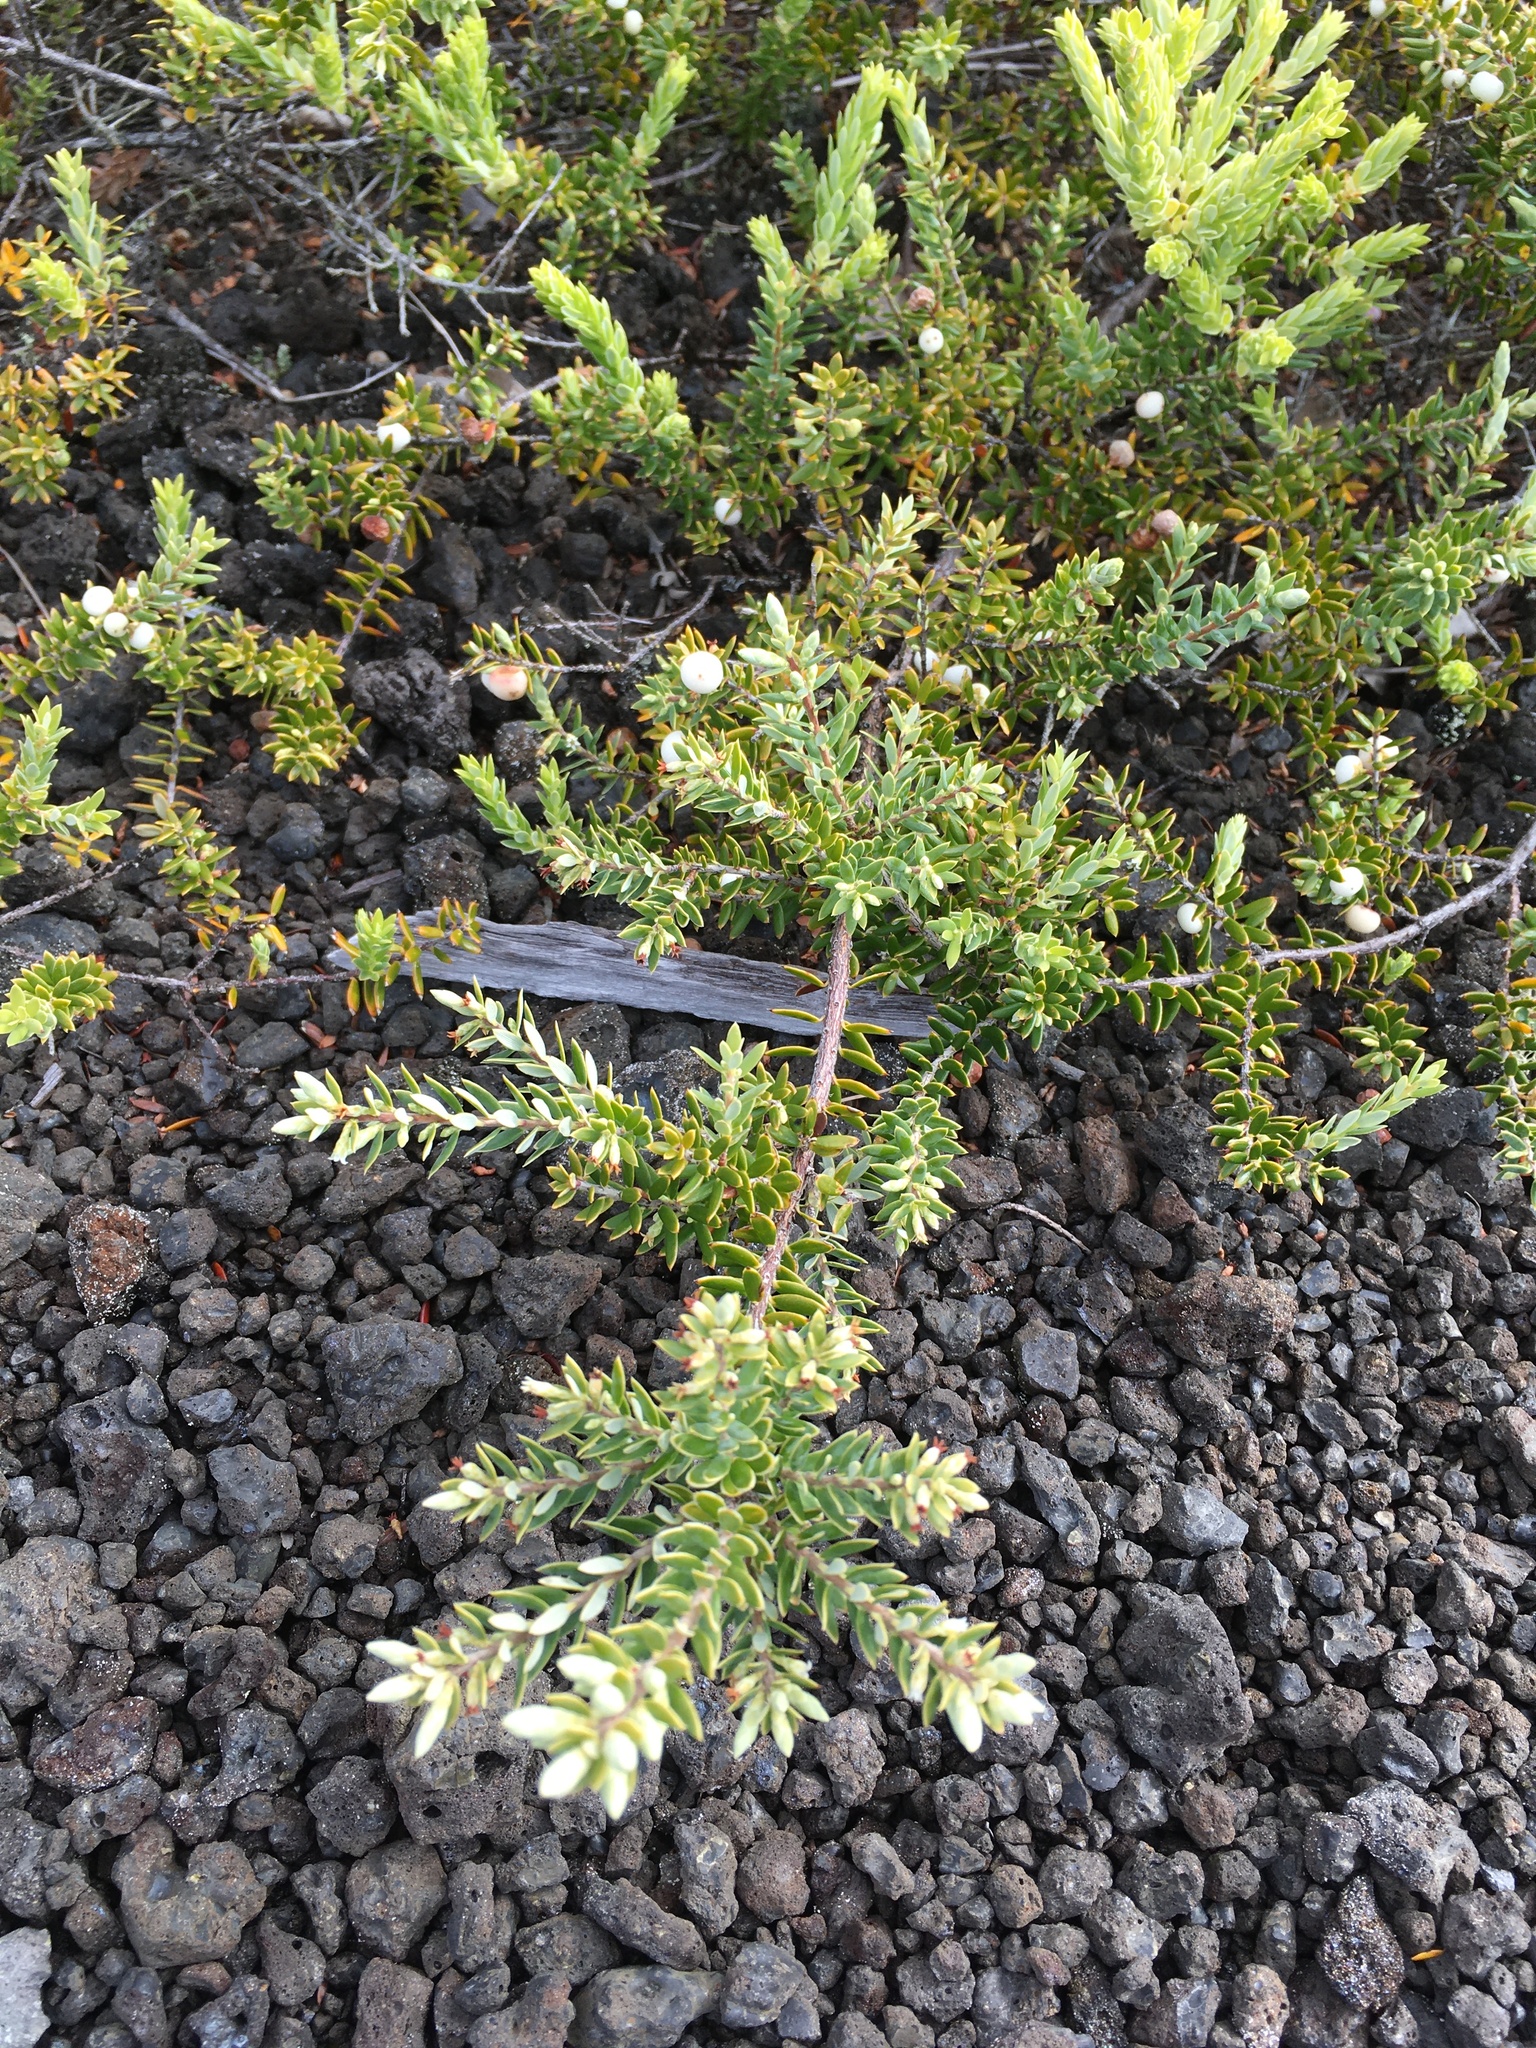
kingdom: Plantae
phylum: Tracheophyta
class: Magnoliopsida
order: Ericales
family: Ericaceae
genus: Leptecophylla
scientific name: Leptecophylla tameiameiae
